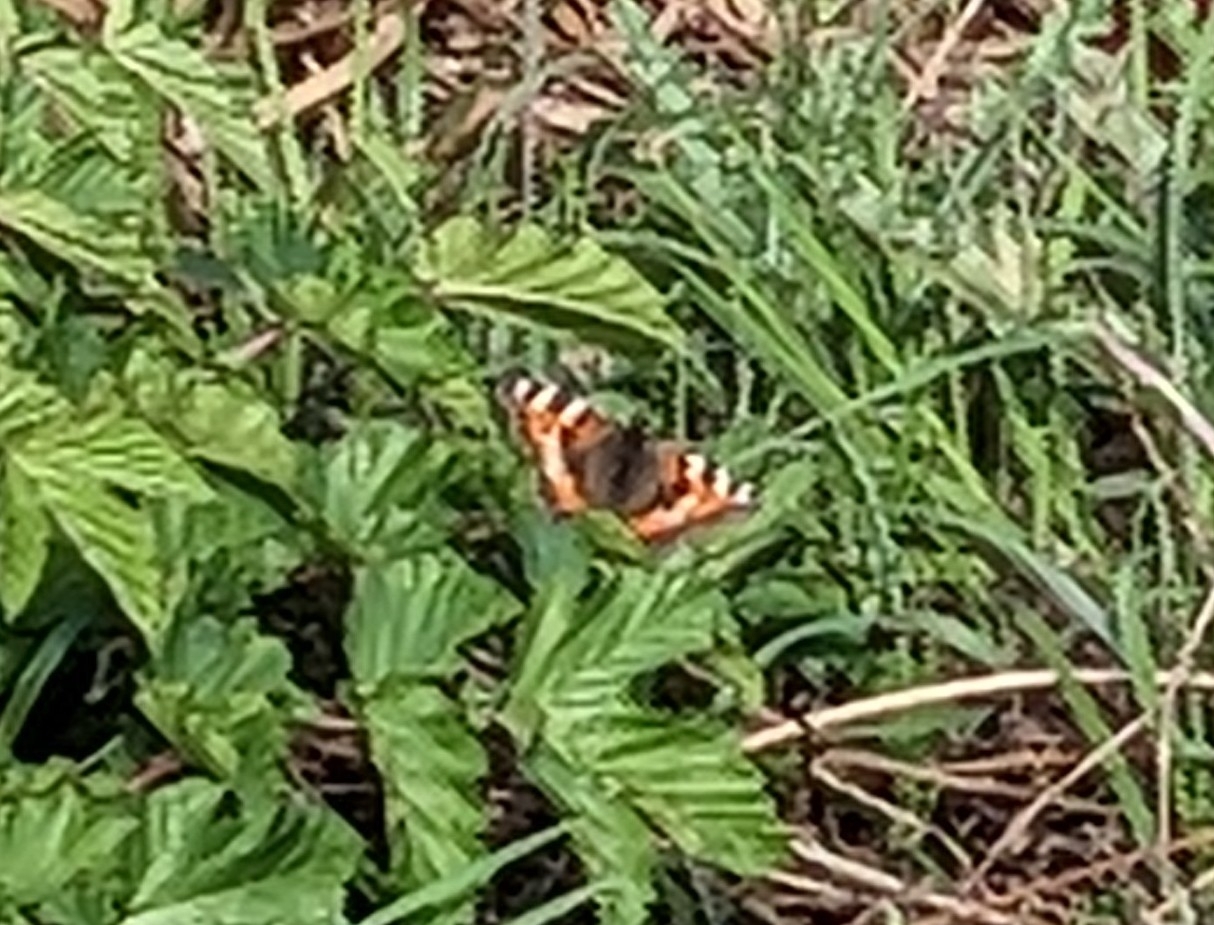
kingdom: Animalia
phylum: Arthropoda
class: Insecta
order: Lepidoptera
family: Nymphalidae
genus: Aglais
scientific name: Aglais urticae
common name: Small tortoiseshell
